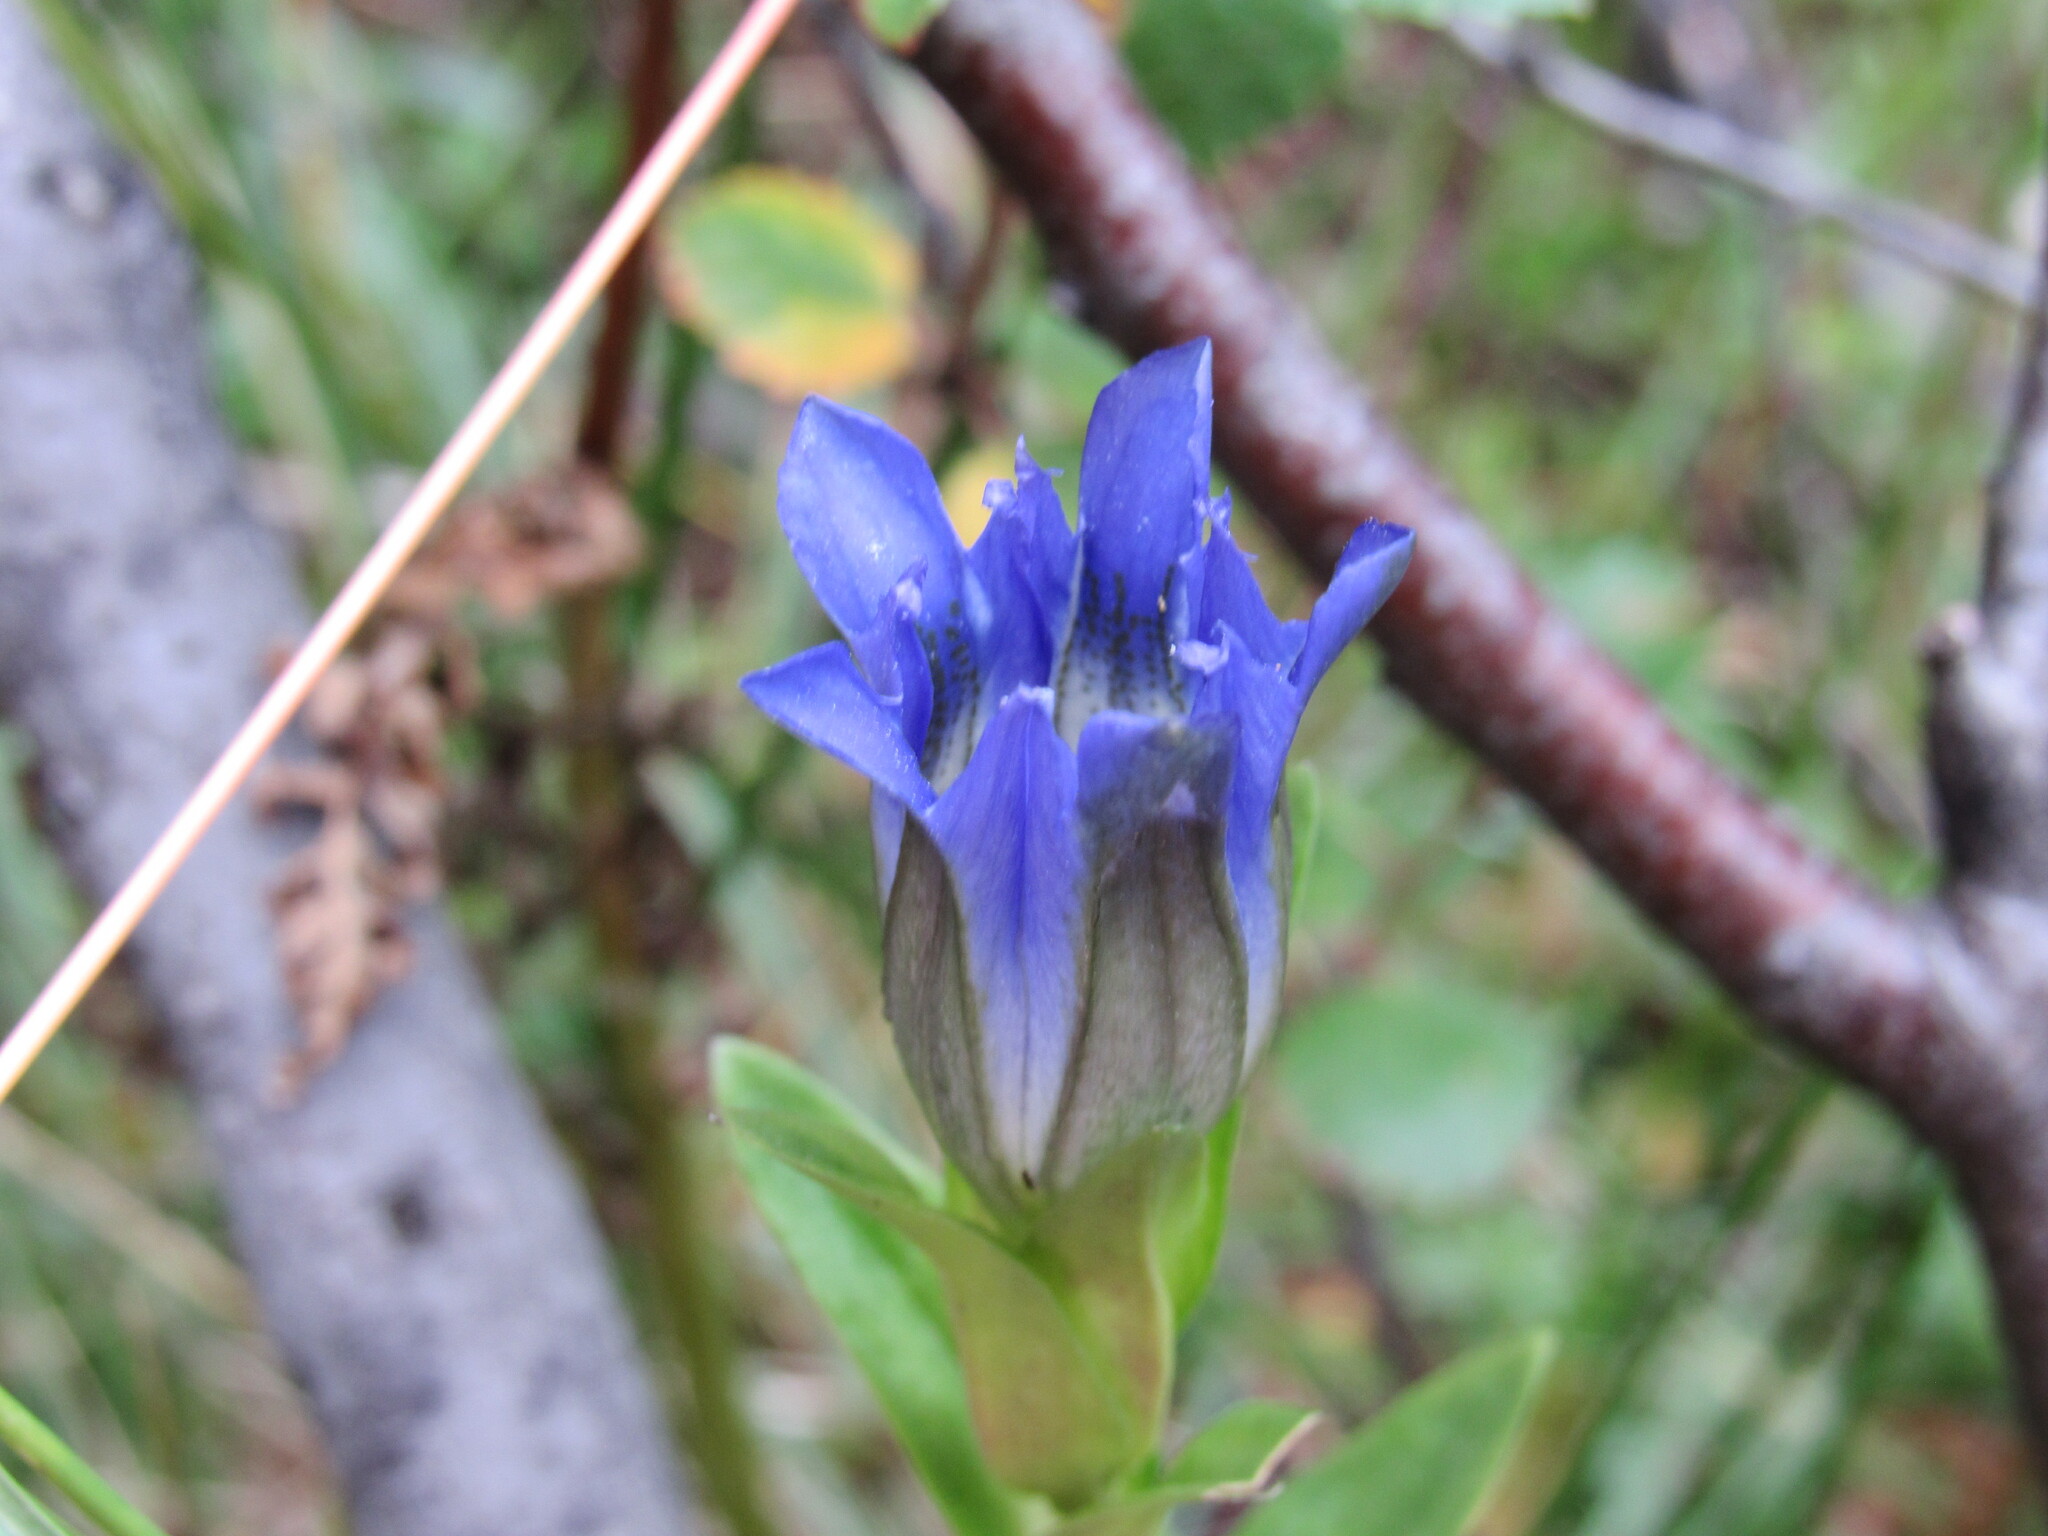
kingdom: Plantae
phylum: Tracheophyta
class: Magnoliopsida
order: Gentianales
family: Gentianaceae
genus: Gentiana
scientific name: Gentiana parryi
